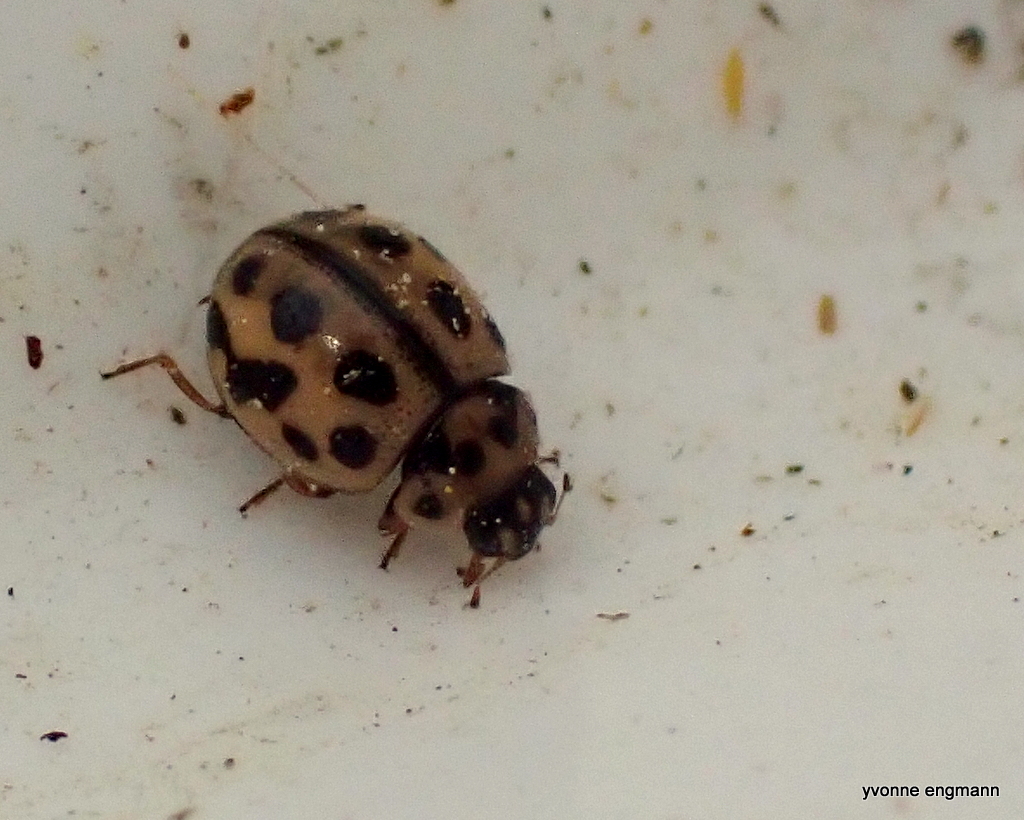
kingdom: Animalia
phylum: Arthropoda
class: Insecta
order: Coleoptera
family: Coccinellidae
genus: Tytthaspis
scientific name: Tytthaspis sedecimpunctata
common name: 16-spot ladybird
